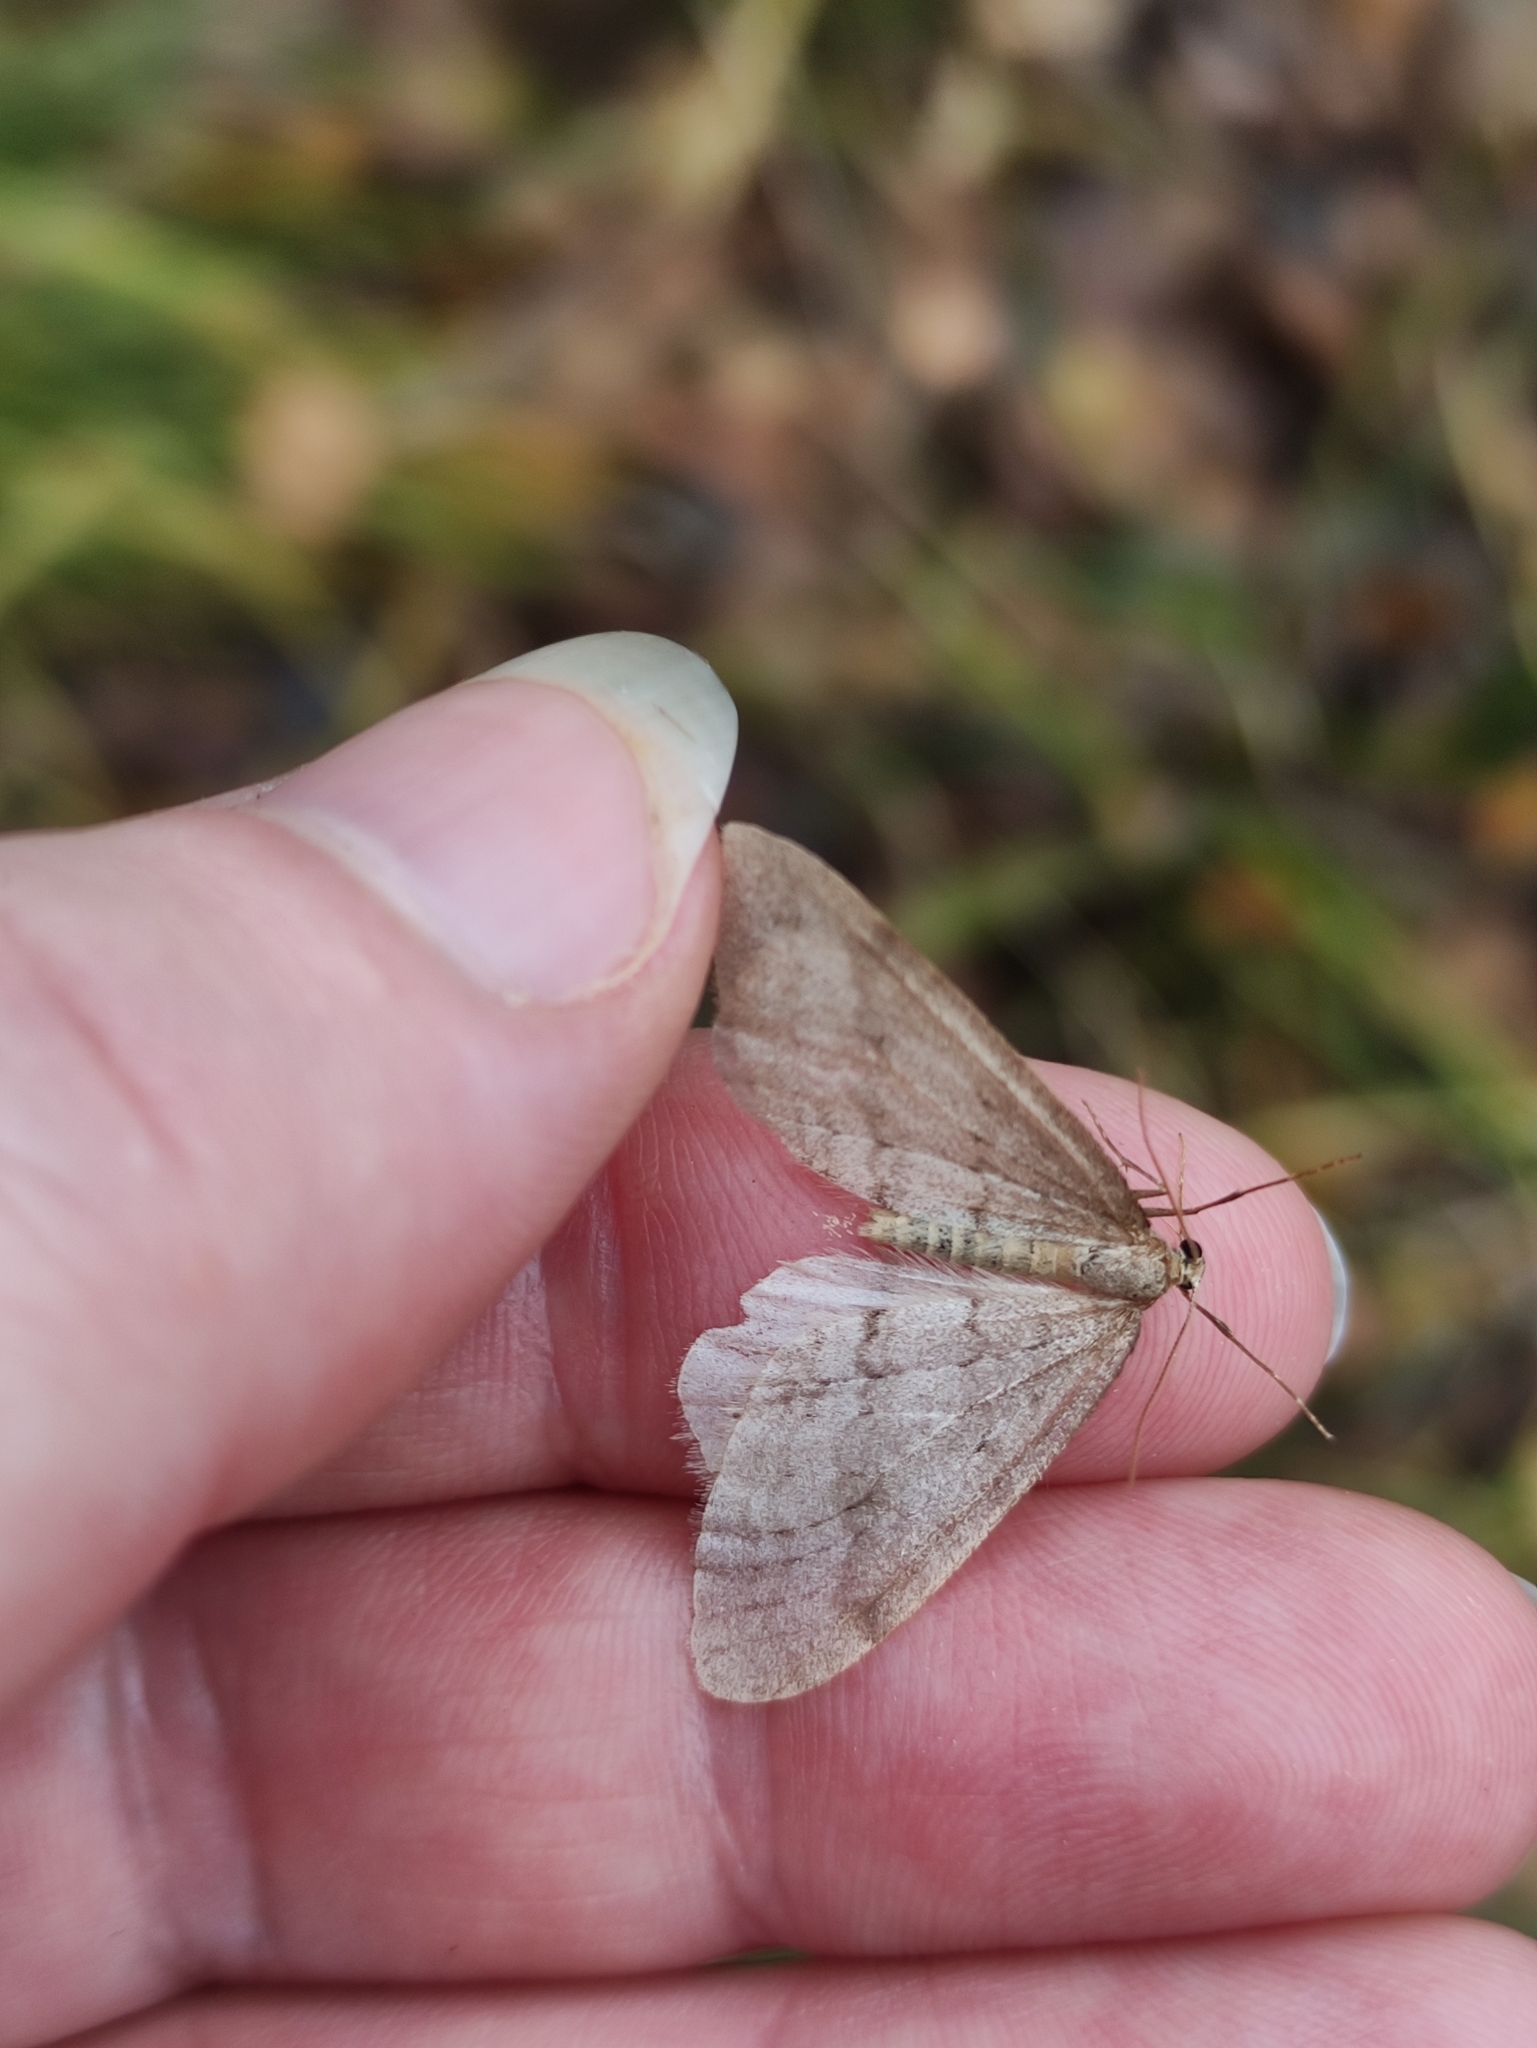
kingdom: Animalia
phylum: Arthropoda
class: Insecta
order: Lepidoptera
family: Geometridae
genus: Operophtera
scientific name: Operophtera fagata
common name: Northern winter moth
